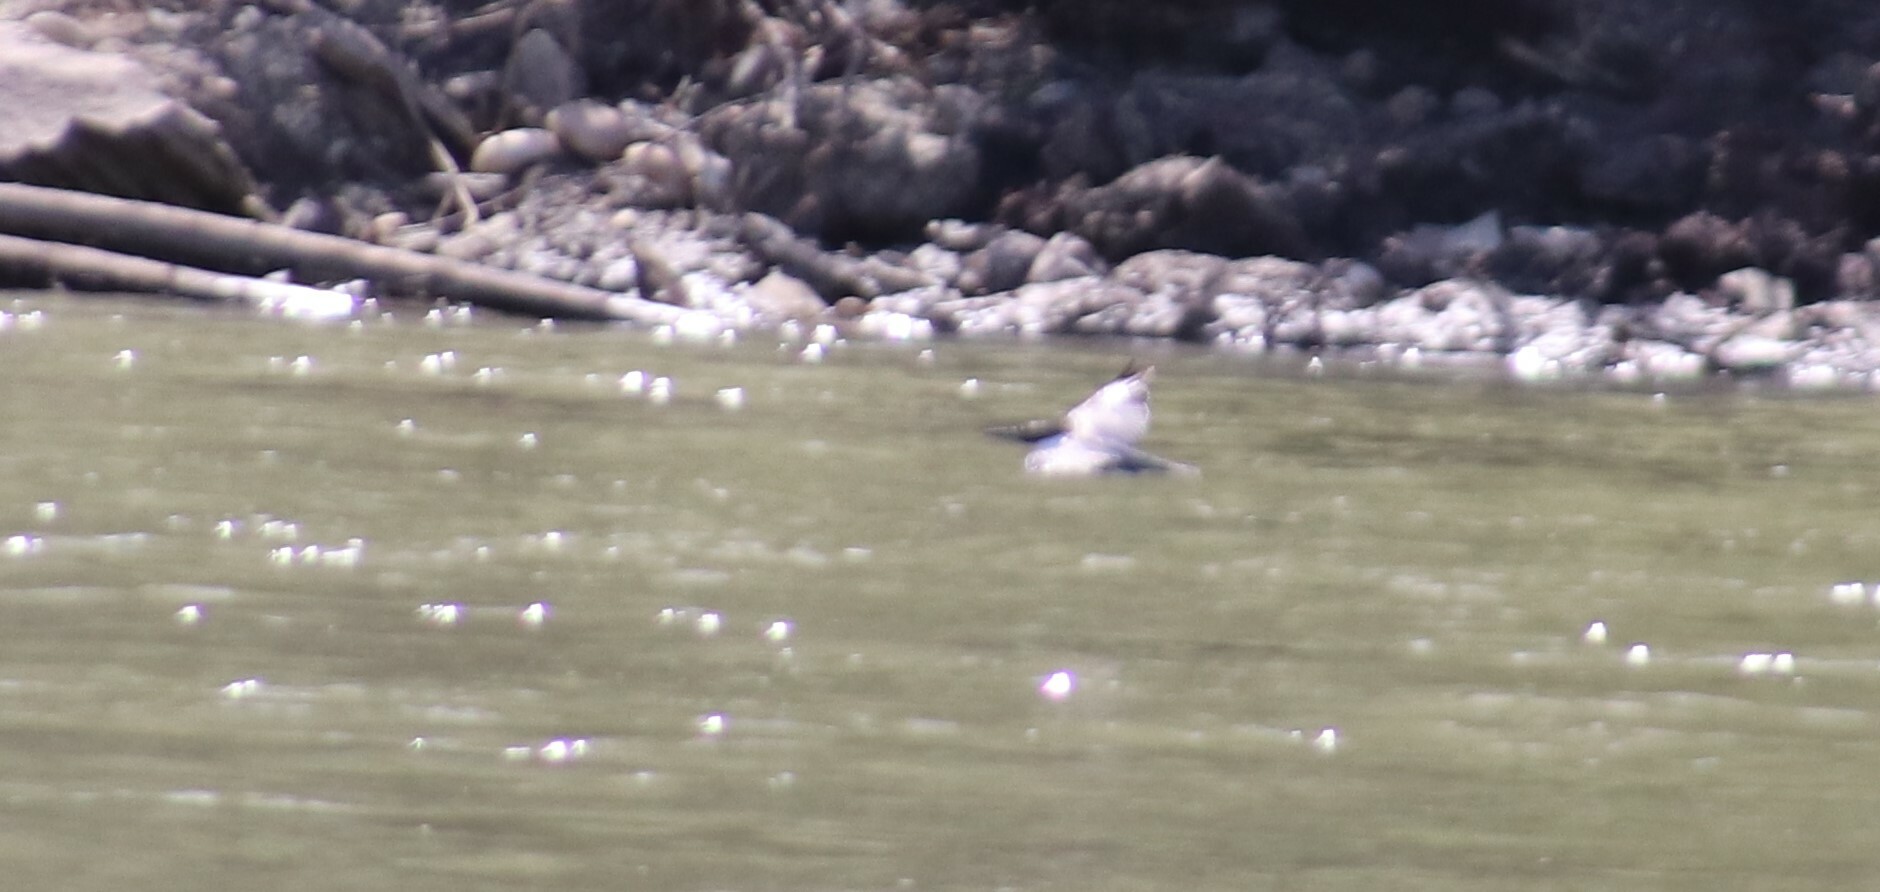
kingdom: Animalia
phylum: Chordata
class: Aves
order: Coraciiformes
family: Alcedinidae
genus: Megaceryle
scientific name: Megaceryle alcyon
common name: Belted kingfisher
